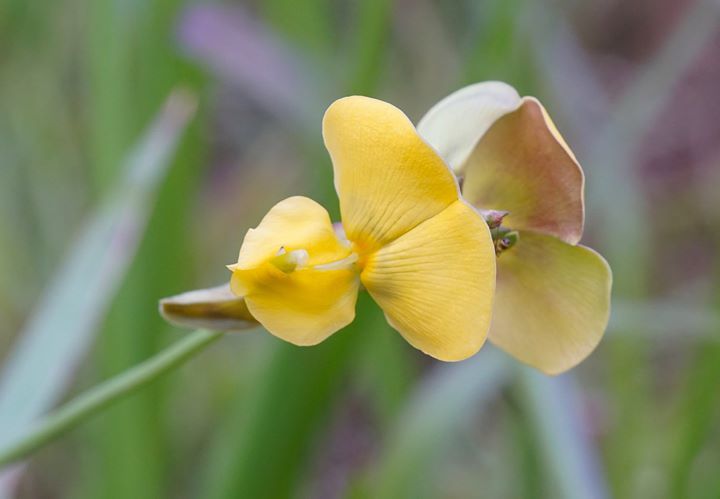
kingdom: Plantae
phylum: Tracheophyta
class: Magnoliopsida
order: Fabales
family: Fabaceae
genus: Vigna
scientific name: Vigna luteola
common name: Hairypod cowpea
